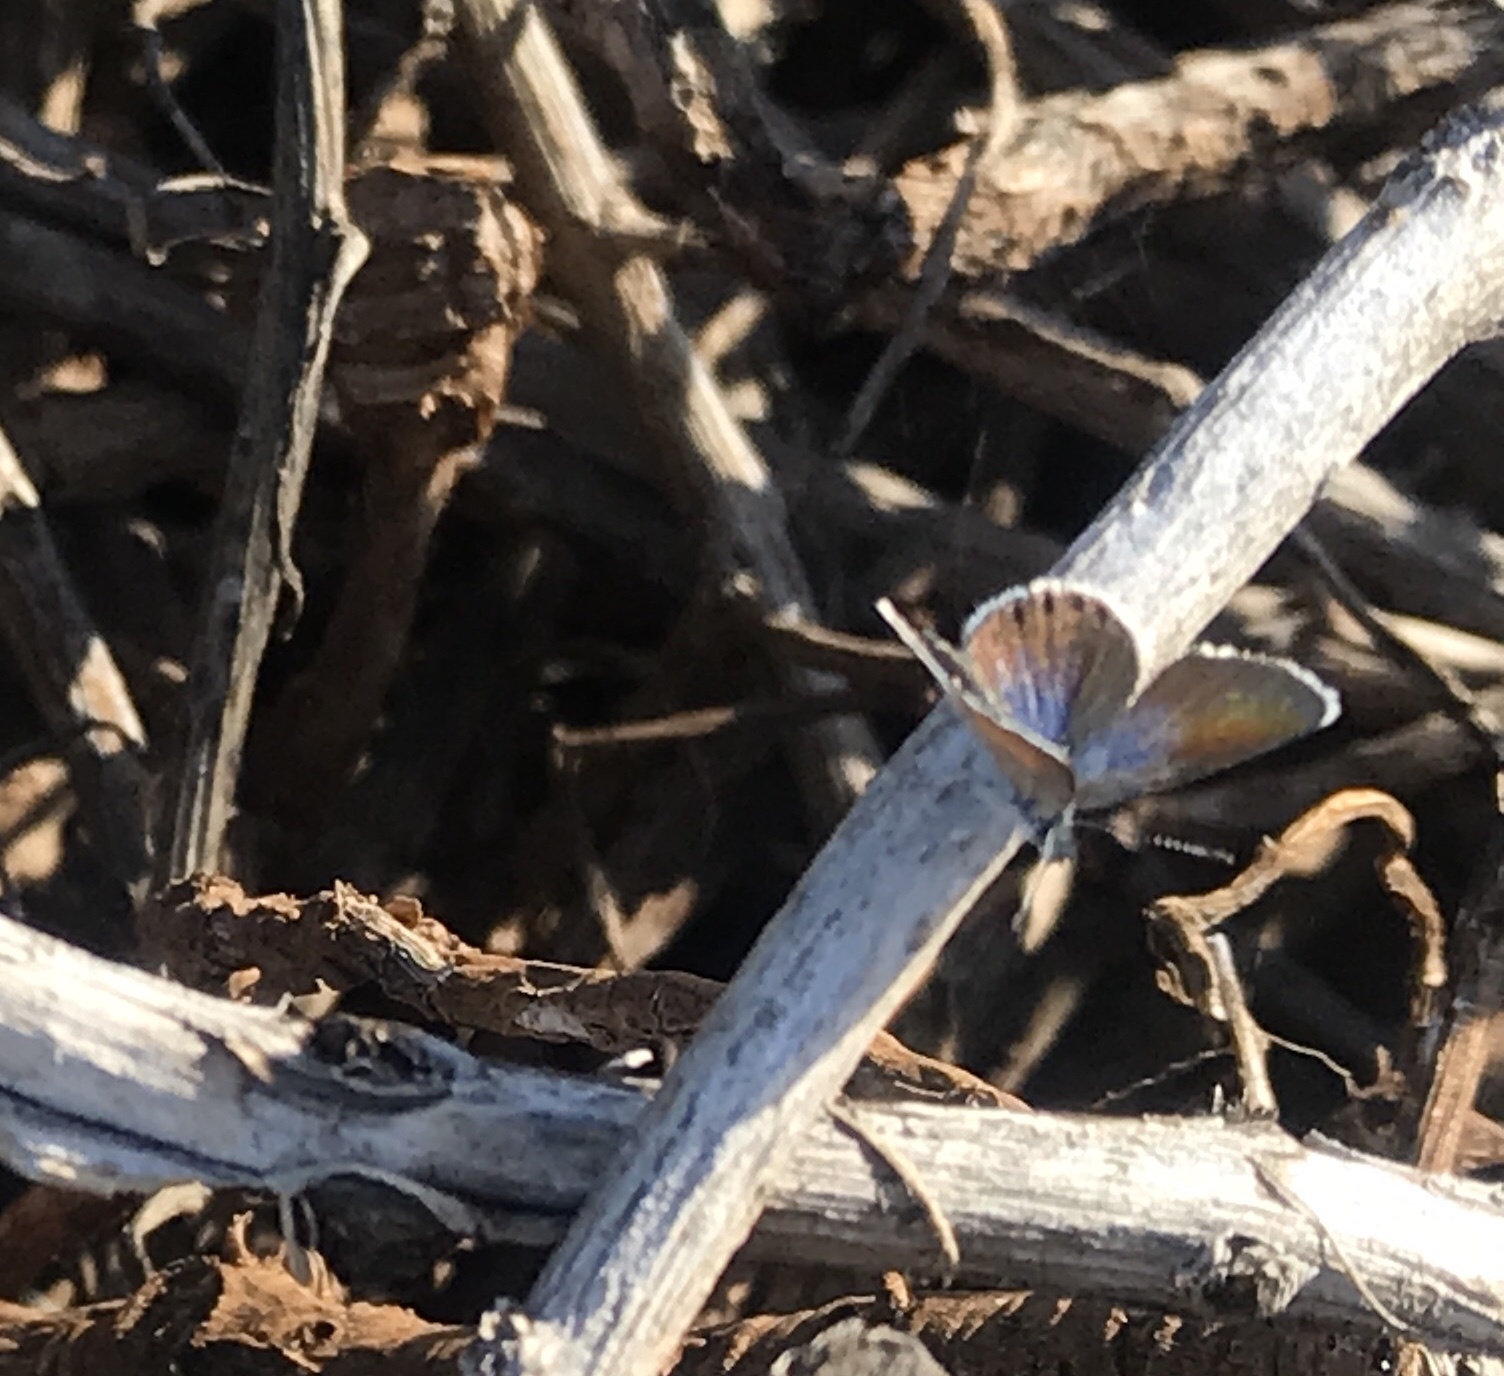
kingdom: Animalia
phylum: Arthropoda
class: Insecta
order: Lepidoptera
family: Lycaenidae
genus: Brephidium
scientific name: Brephidium exilis
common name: Pygmy blue
